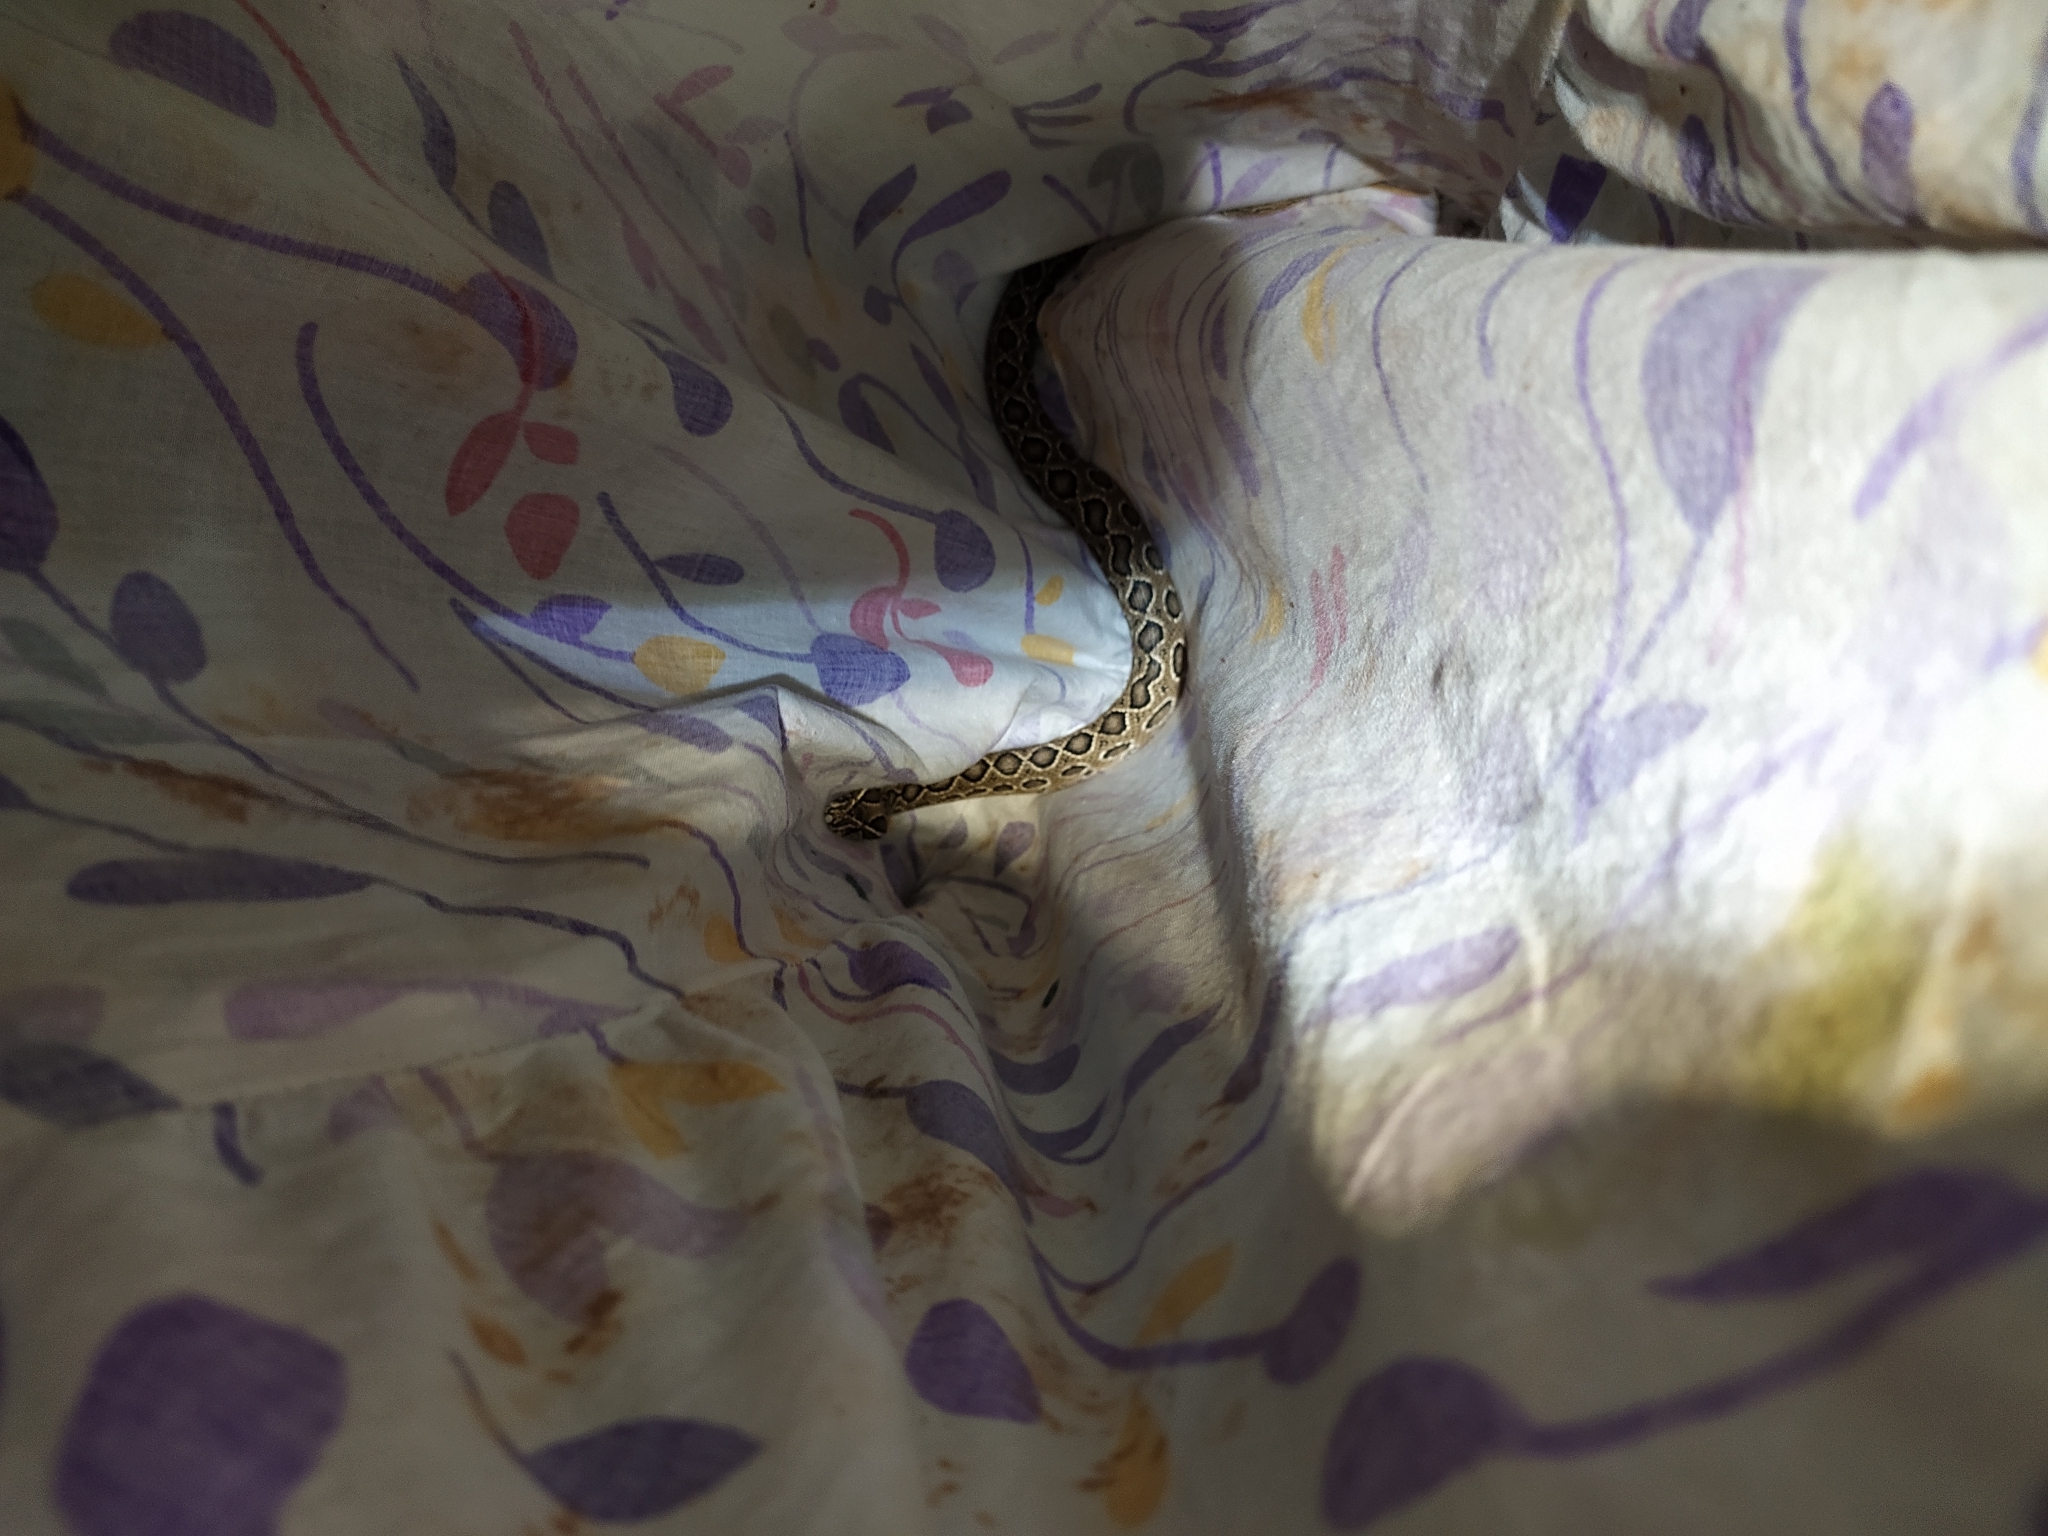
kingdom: Animalia
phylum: Chordata
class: Squamata
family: Viperidae
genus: Daboia
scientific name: Daboia russelii
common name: Western russel’s viper
